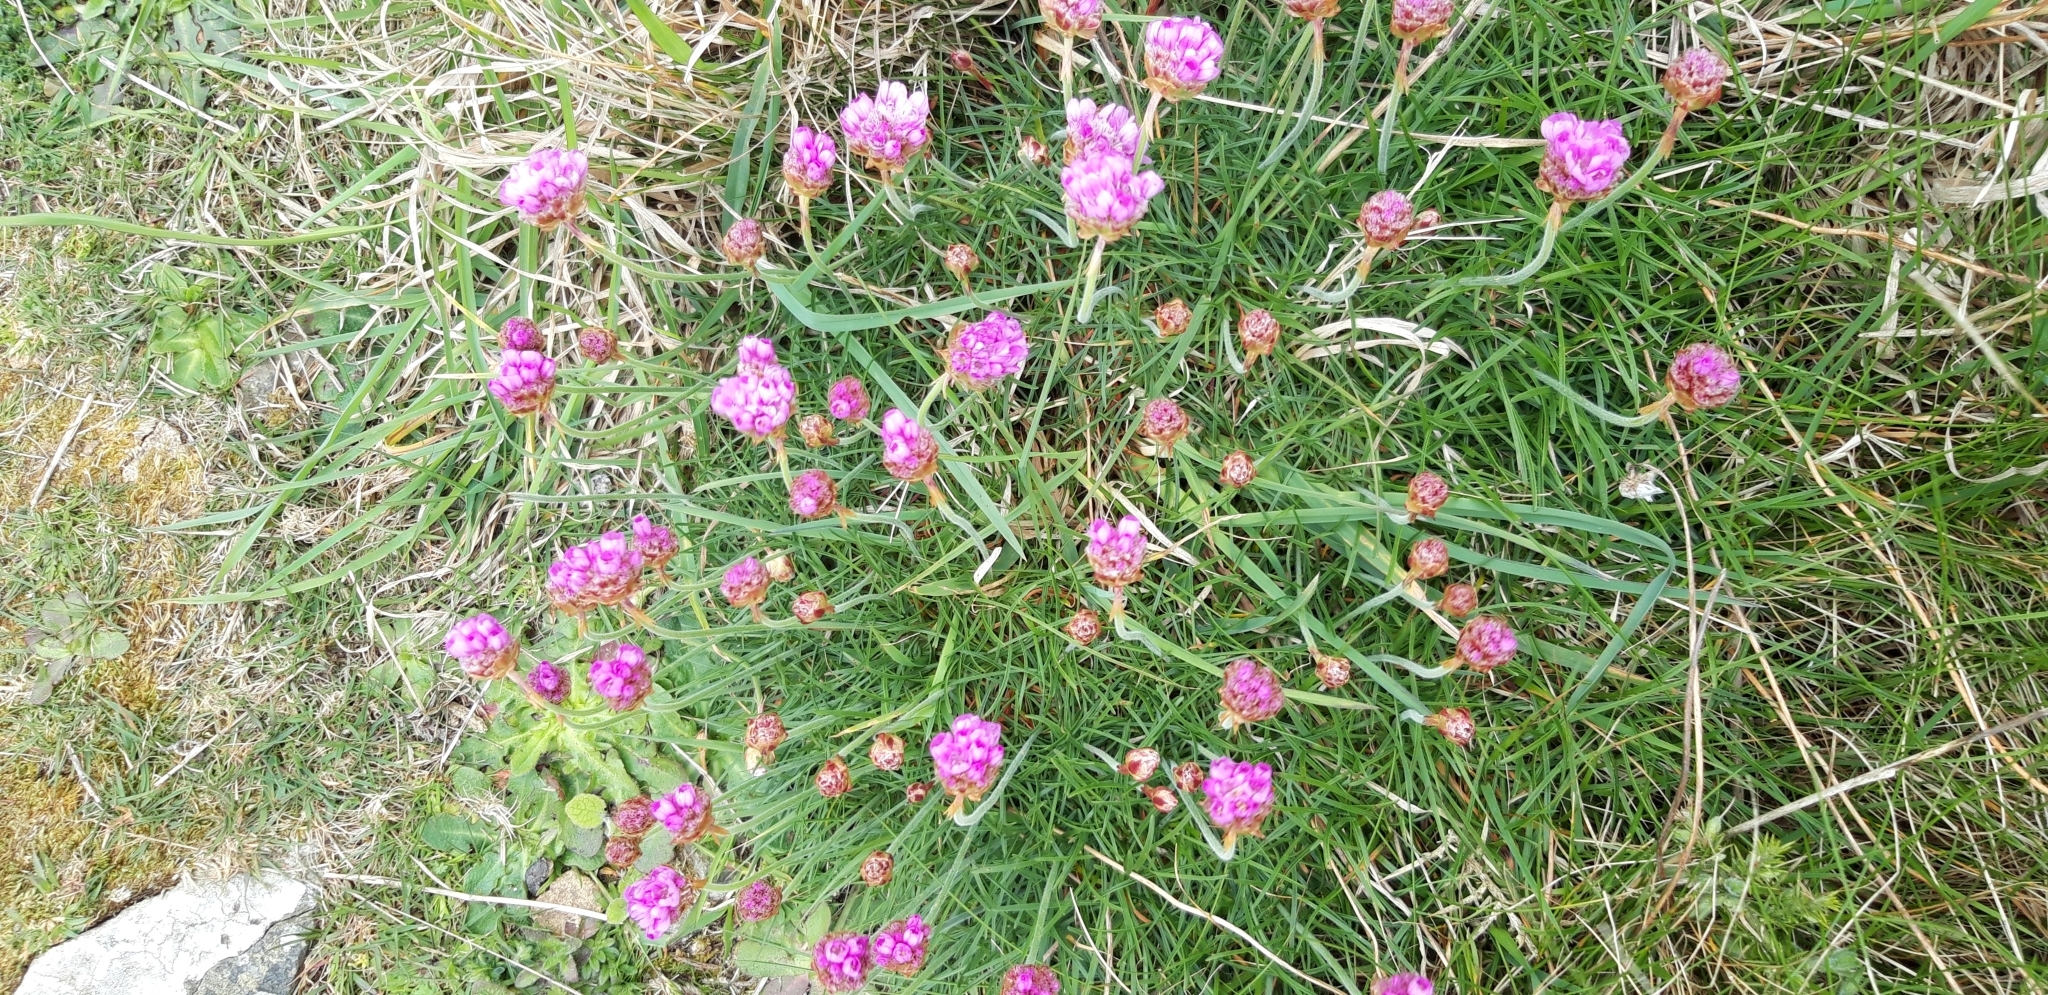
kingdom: Plantae
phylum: Tracheophyta
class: Magnoliopsida
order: Caryophyllales
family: Plumbaginaceae
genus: Armeria
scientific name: Armeria maritima
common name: Thrift
